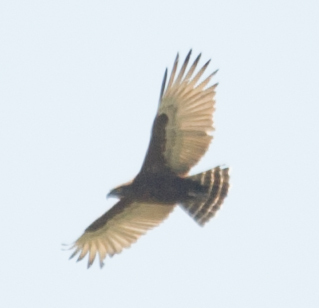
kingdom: Animalia
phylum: Chordata
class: Aves
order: Accipitriformes
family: Accipitridae
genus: Circaetus
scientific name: Circaetus cinereus
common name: Brown snake eagle
